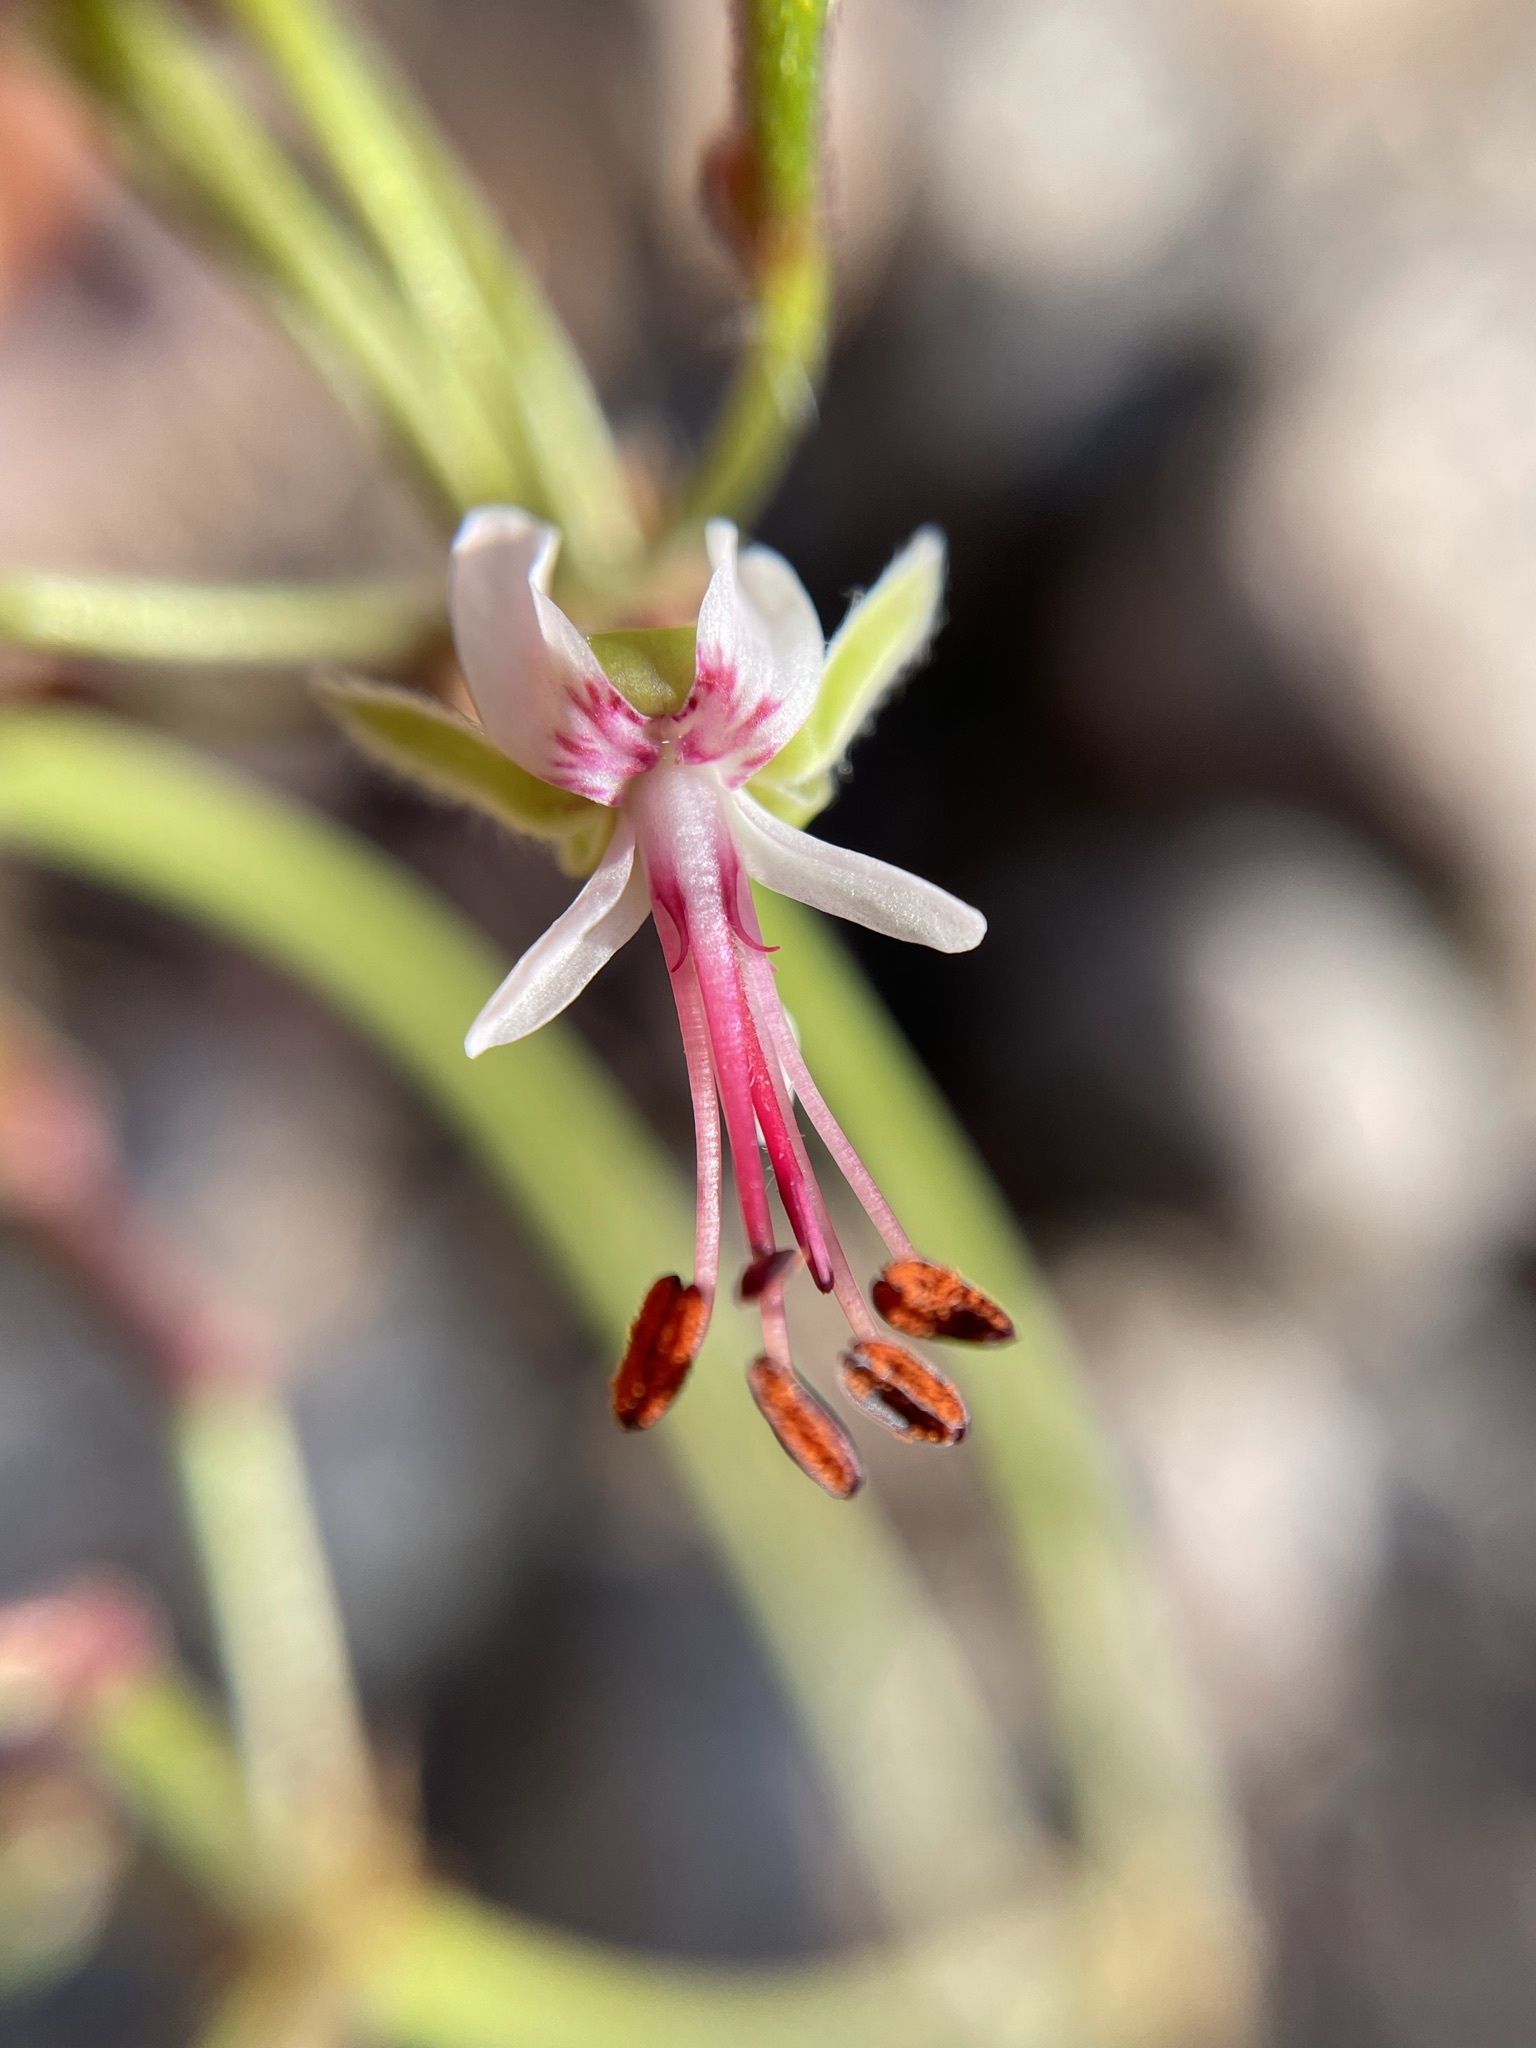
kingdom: Plantae
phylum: Tracheophyta
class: Magnoliopsida
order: Geraniales
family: Geraniaceae
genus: Pelargonium
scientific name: Pelargonium laxum
